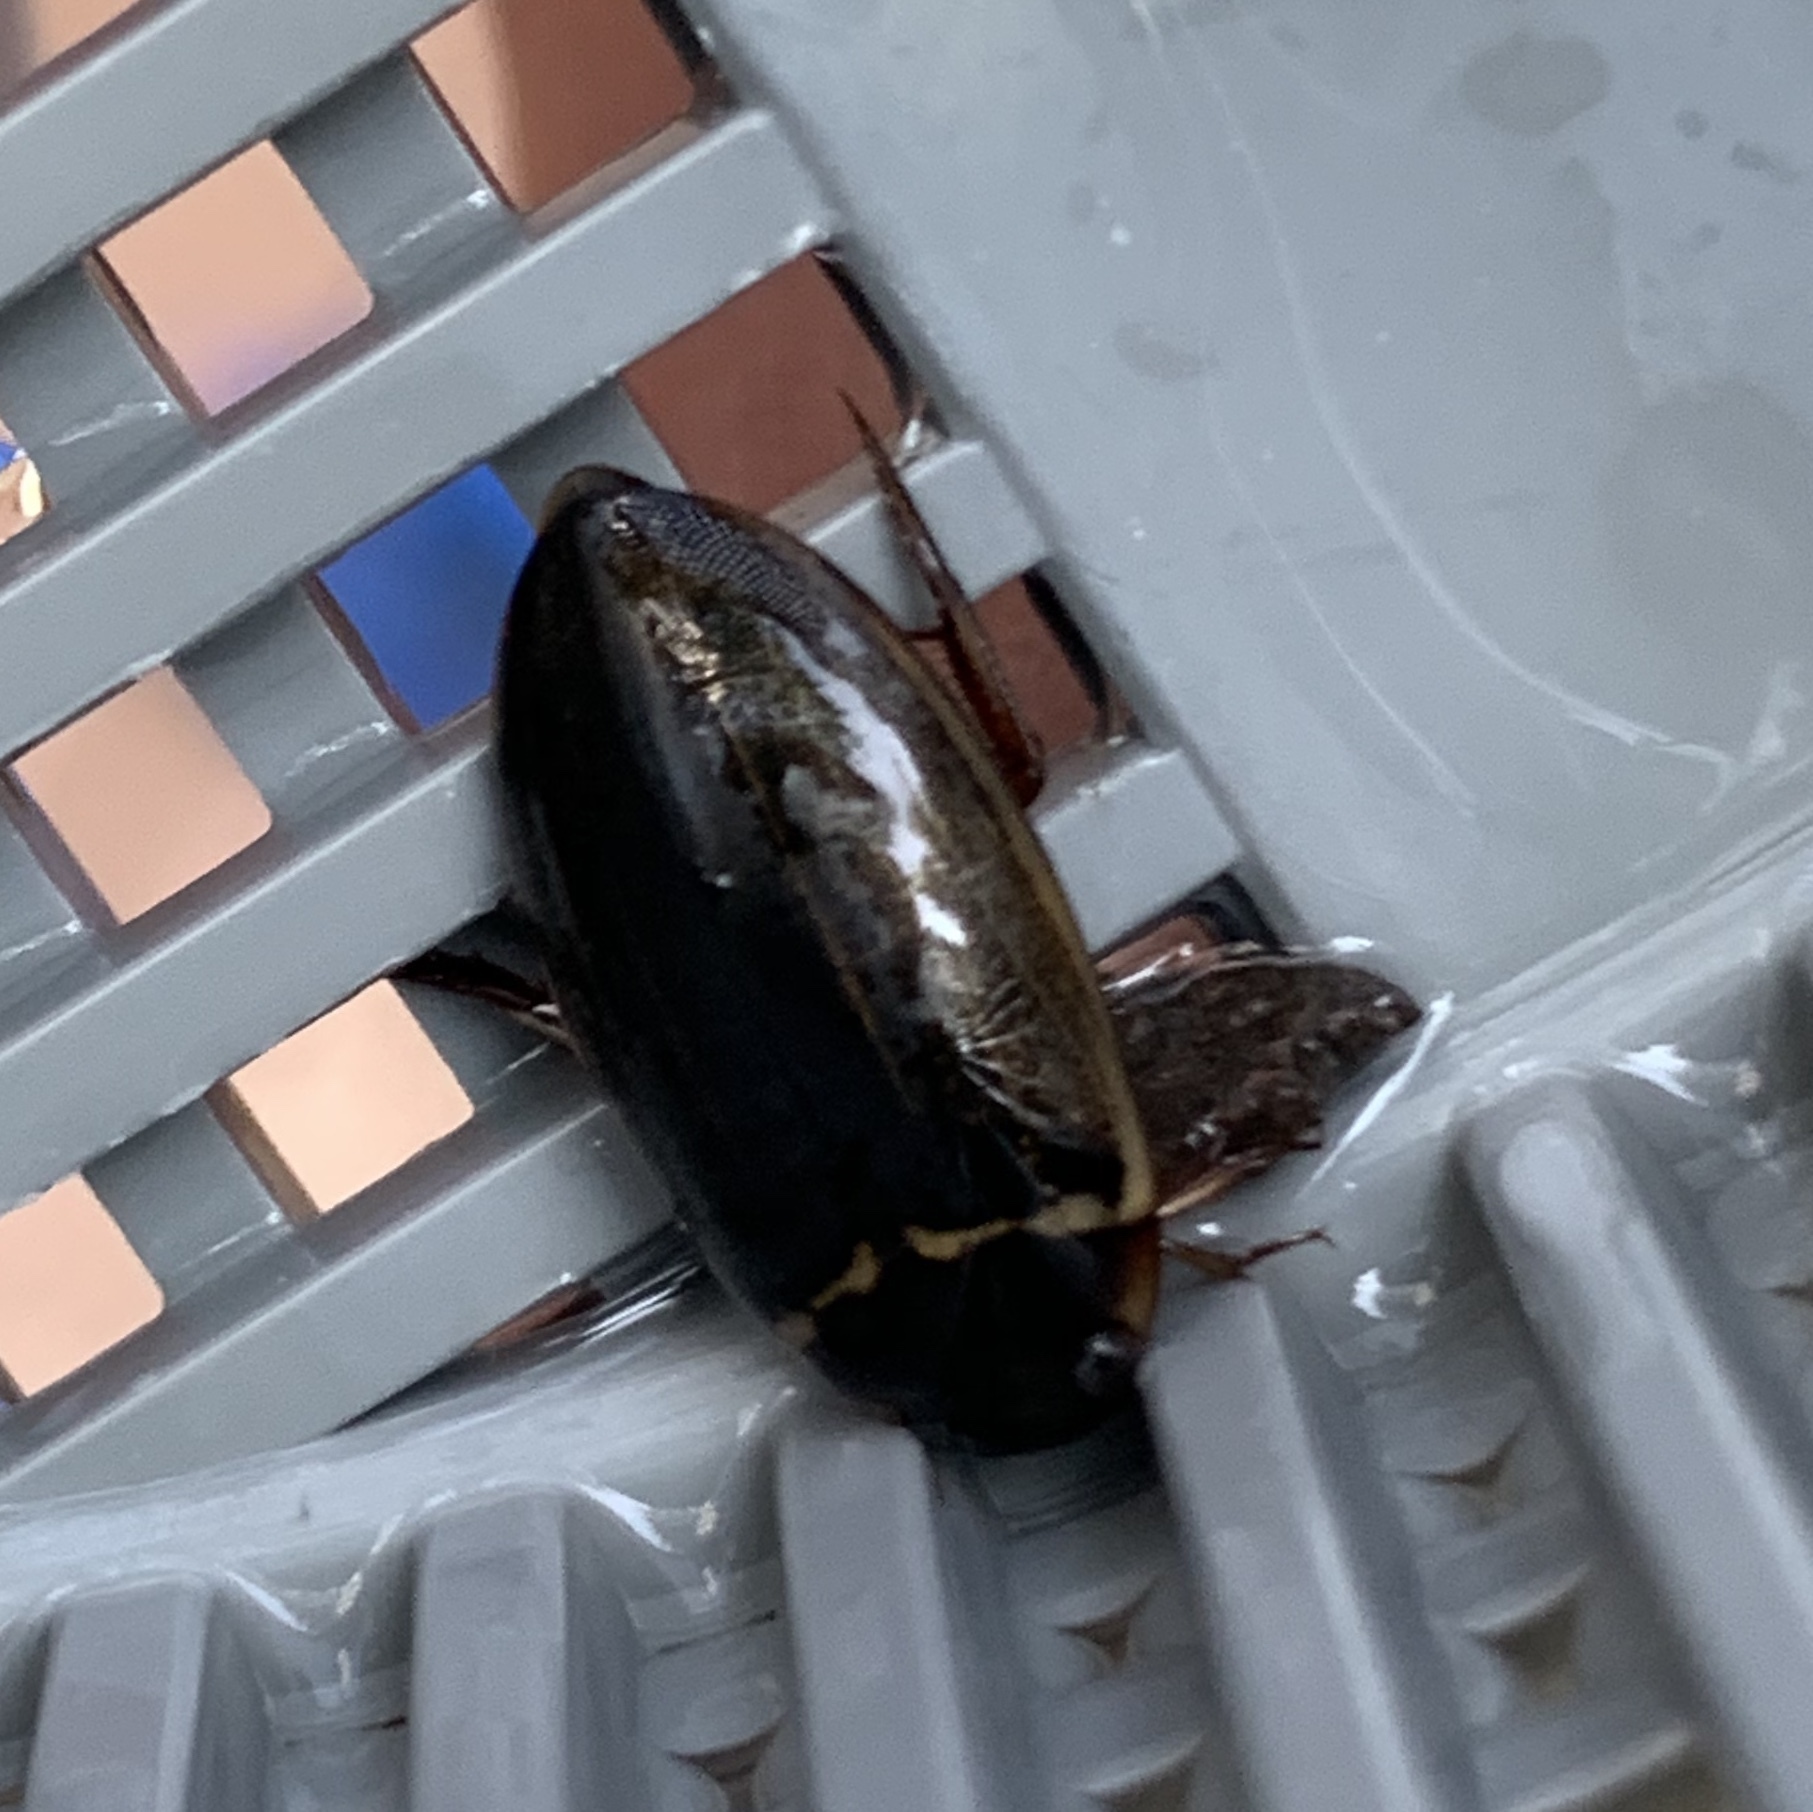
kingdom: Animalia
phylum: Arthropoda
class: Insecta
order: Coleoptera
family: Dytiscidae
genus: Meridiorhantus
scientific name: Meridiorhantus calidus
